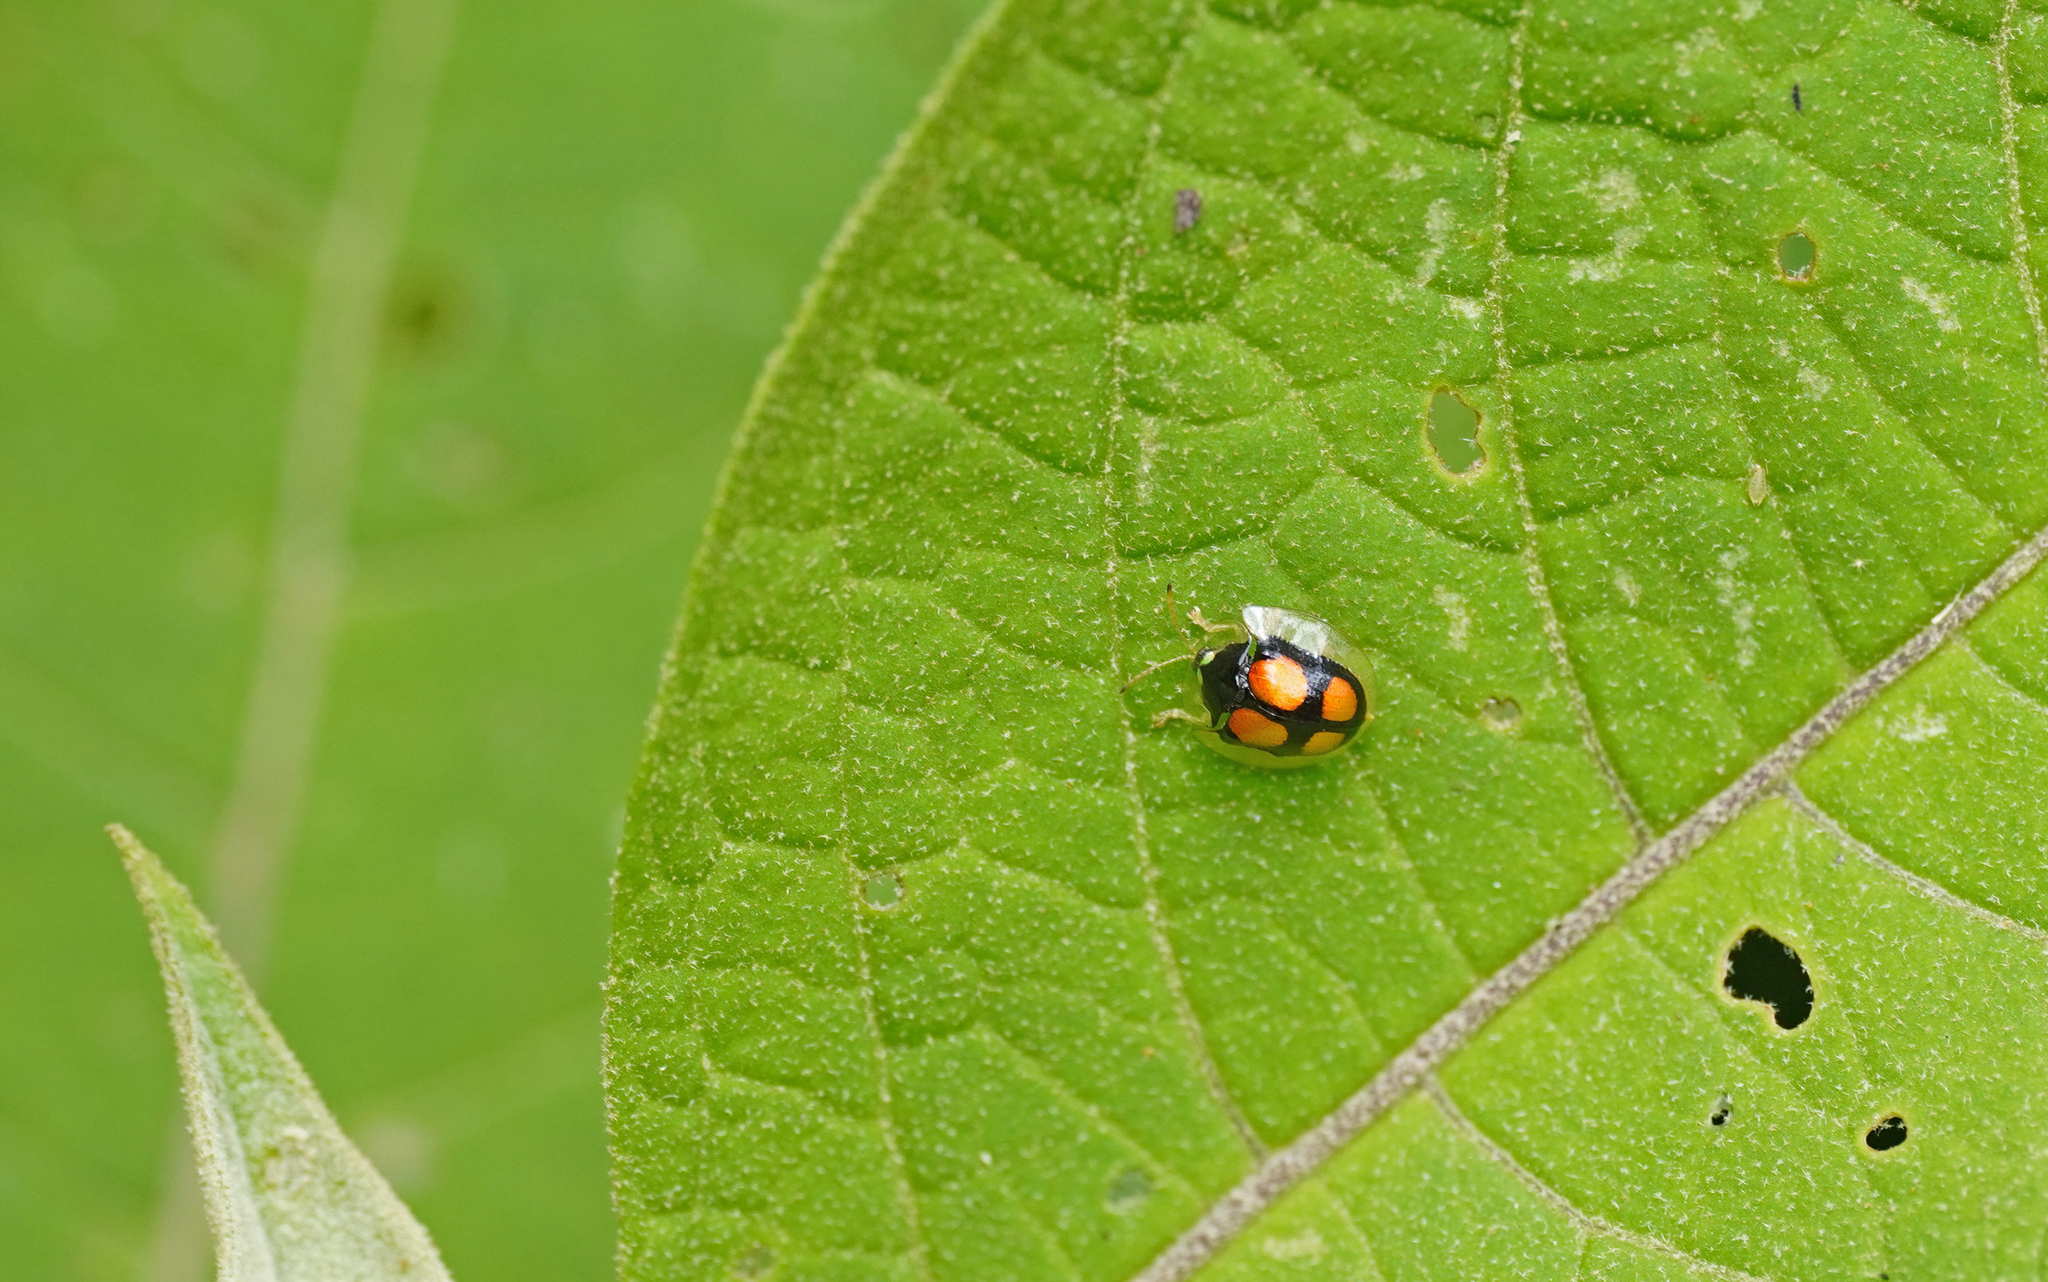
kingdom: Animalia
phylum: Arthropoda
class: Insecta
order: Coleoptera
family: Chrysomelidae
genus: Plagiometriona
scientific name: Plagiometriona buqueti
